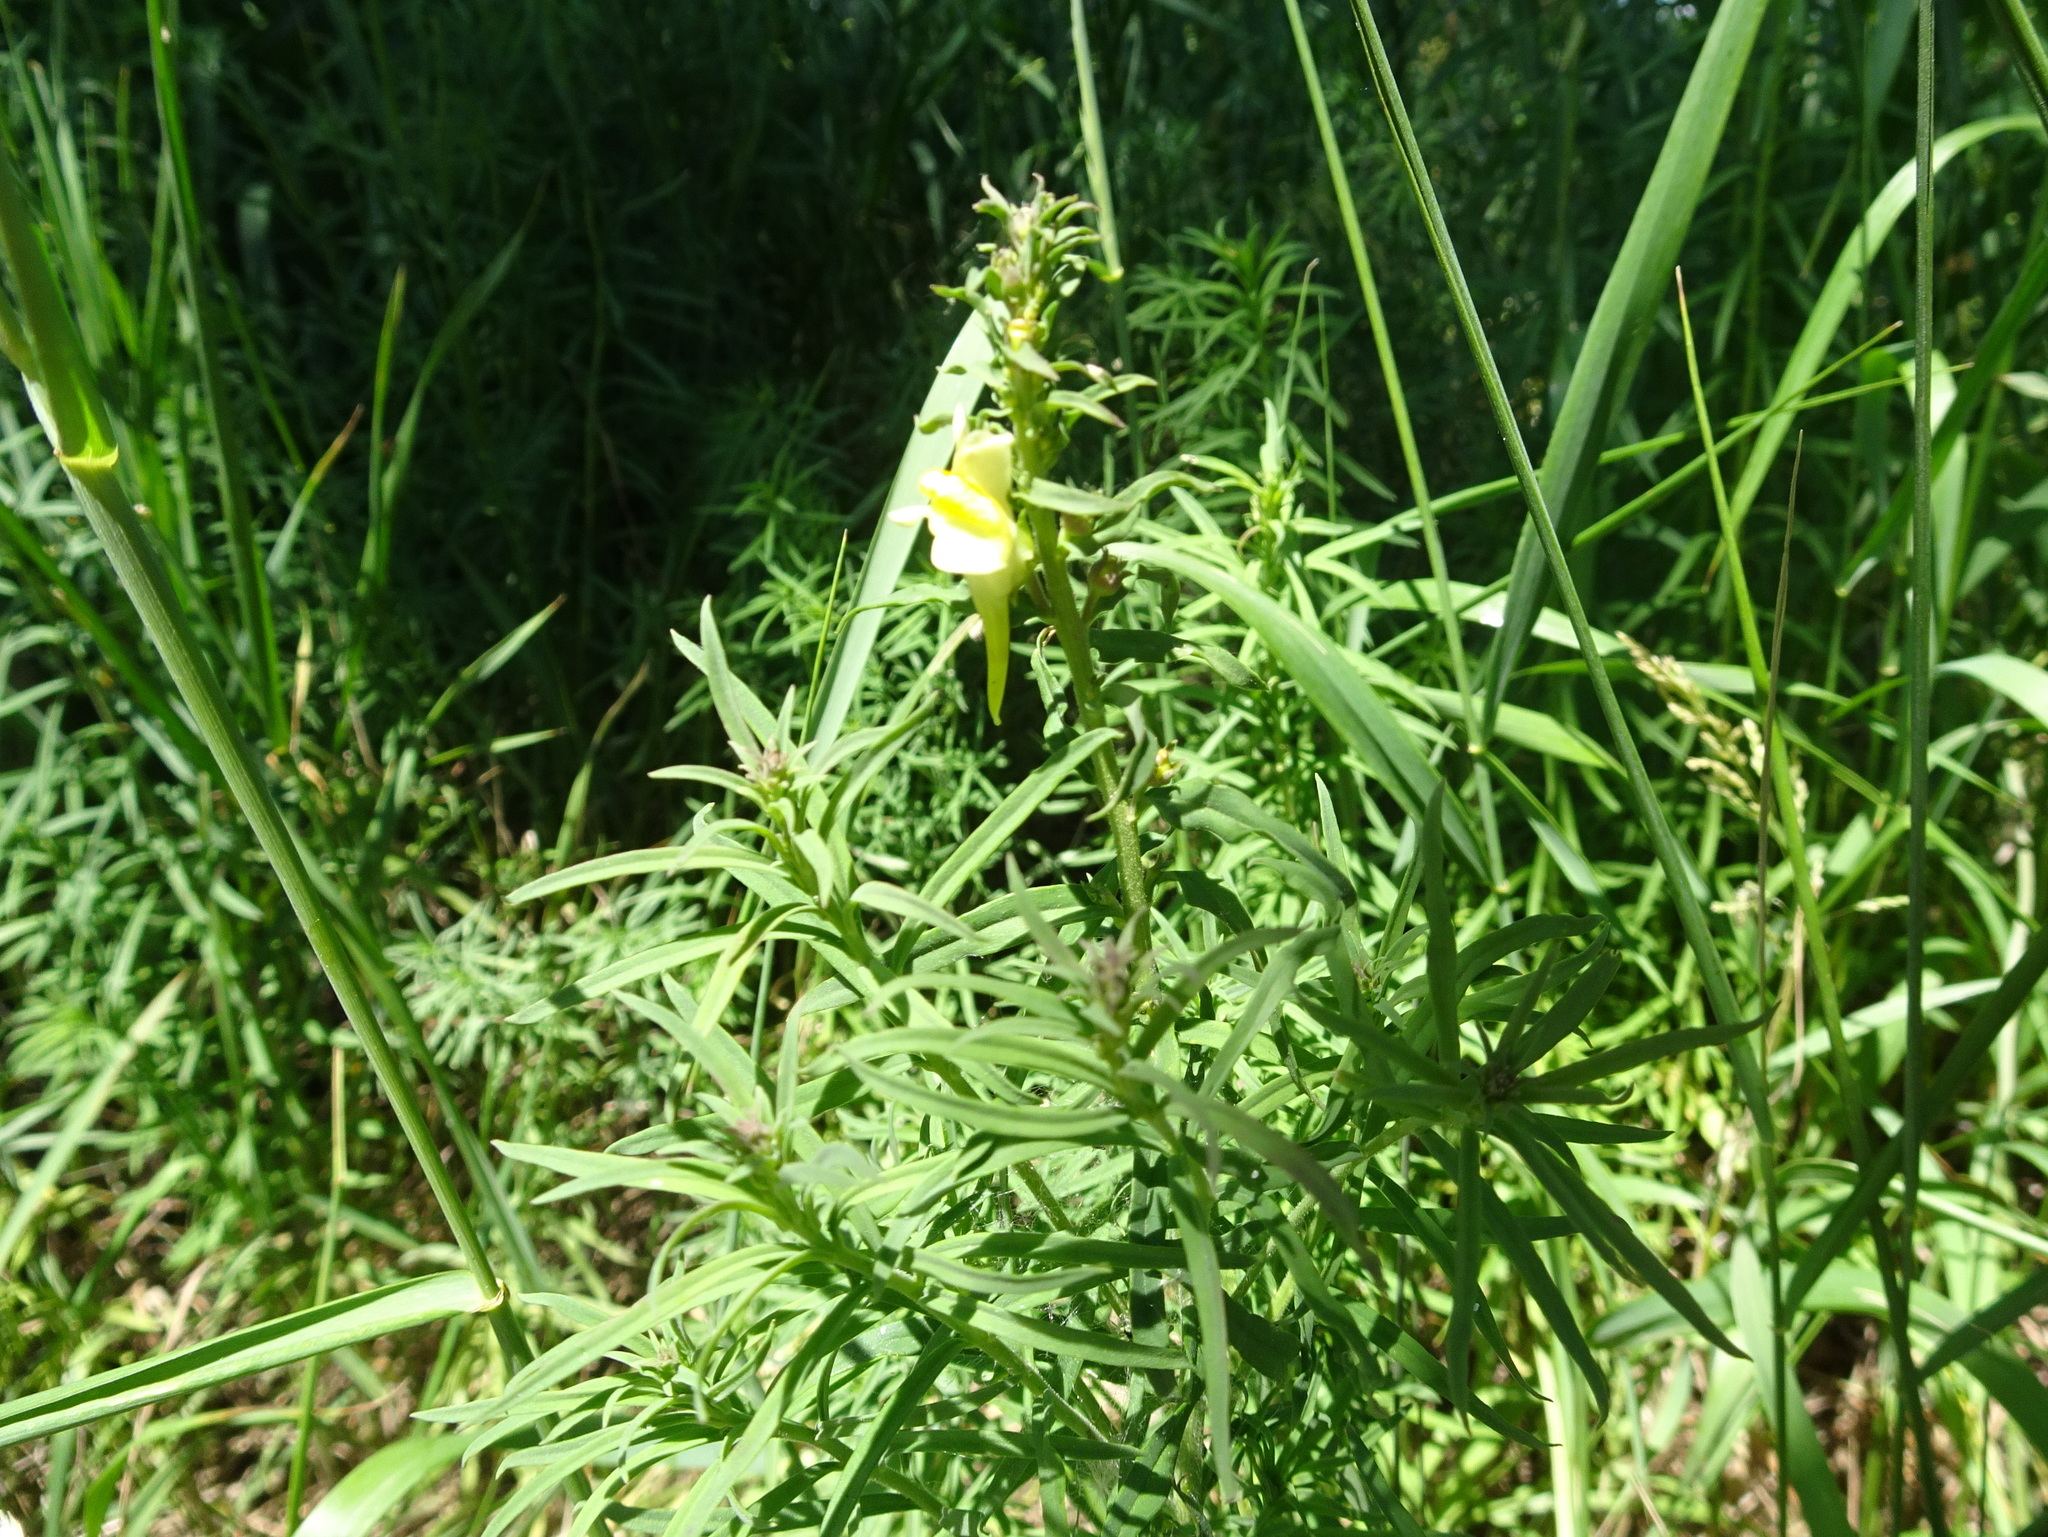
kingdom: Plantae
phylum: Tracheophyta
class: Magnoliopsida
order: Lamiales
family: Plantaginaceae
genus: Linaria
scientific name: Linaria vulgaris
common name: Butter and eggs
